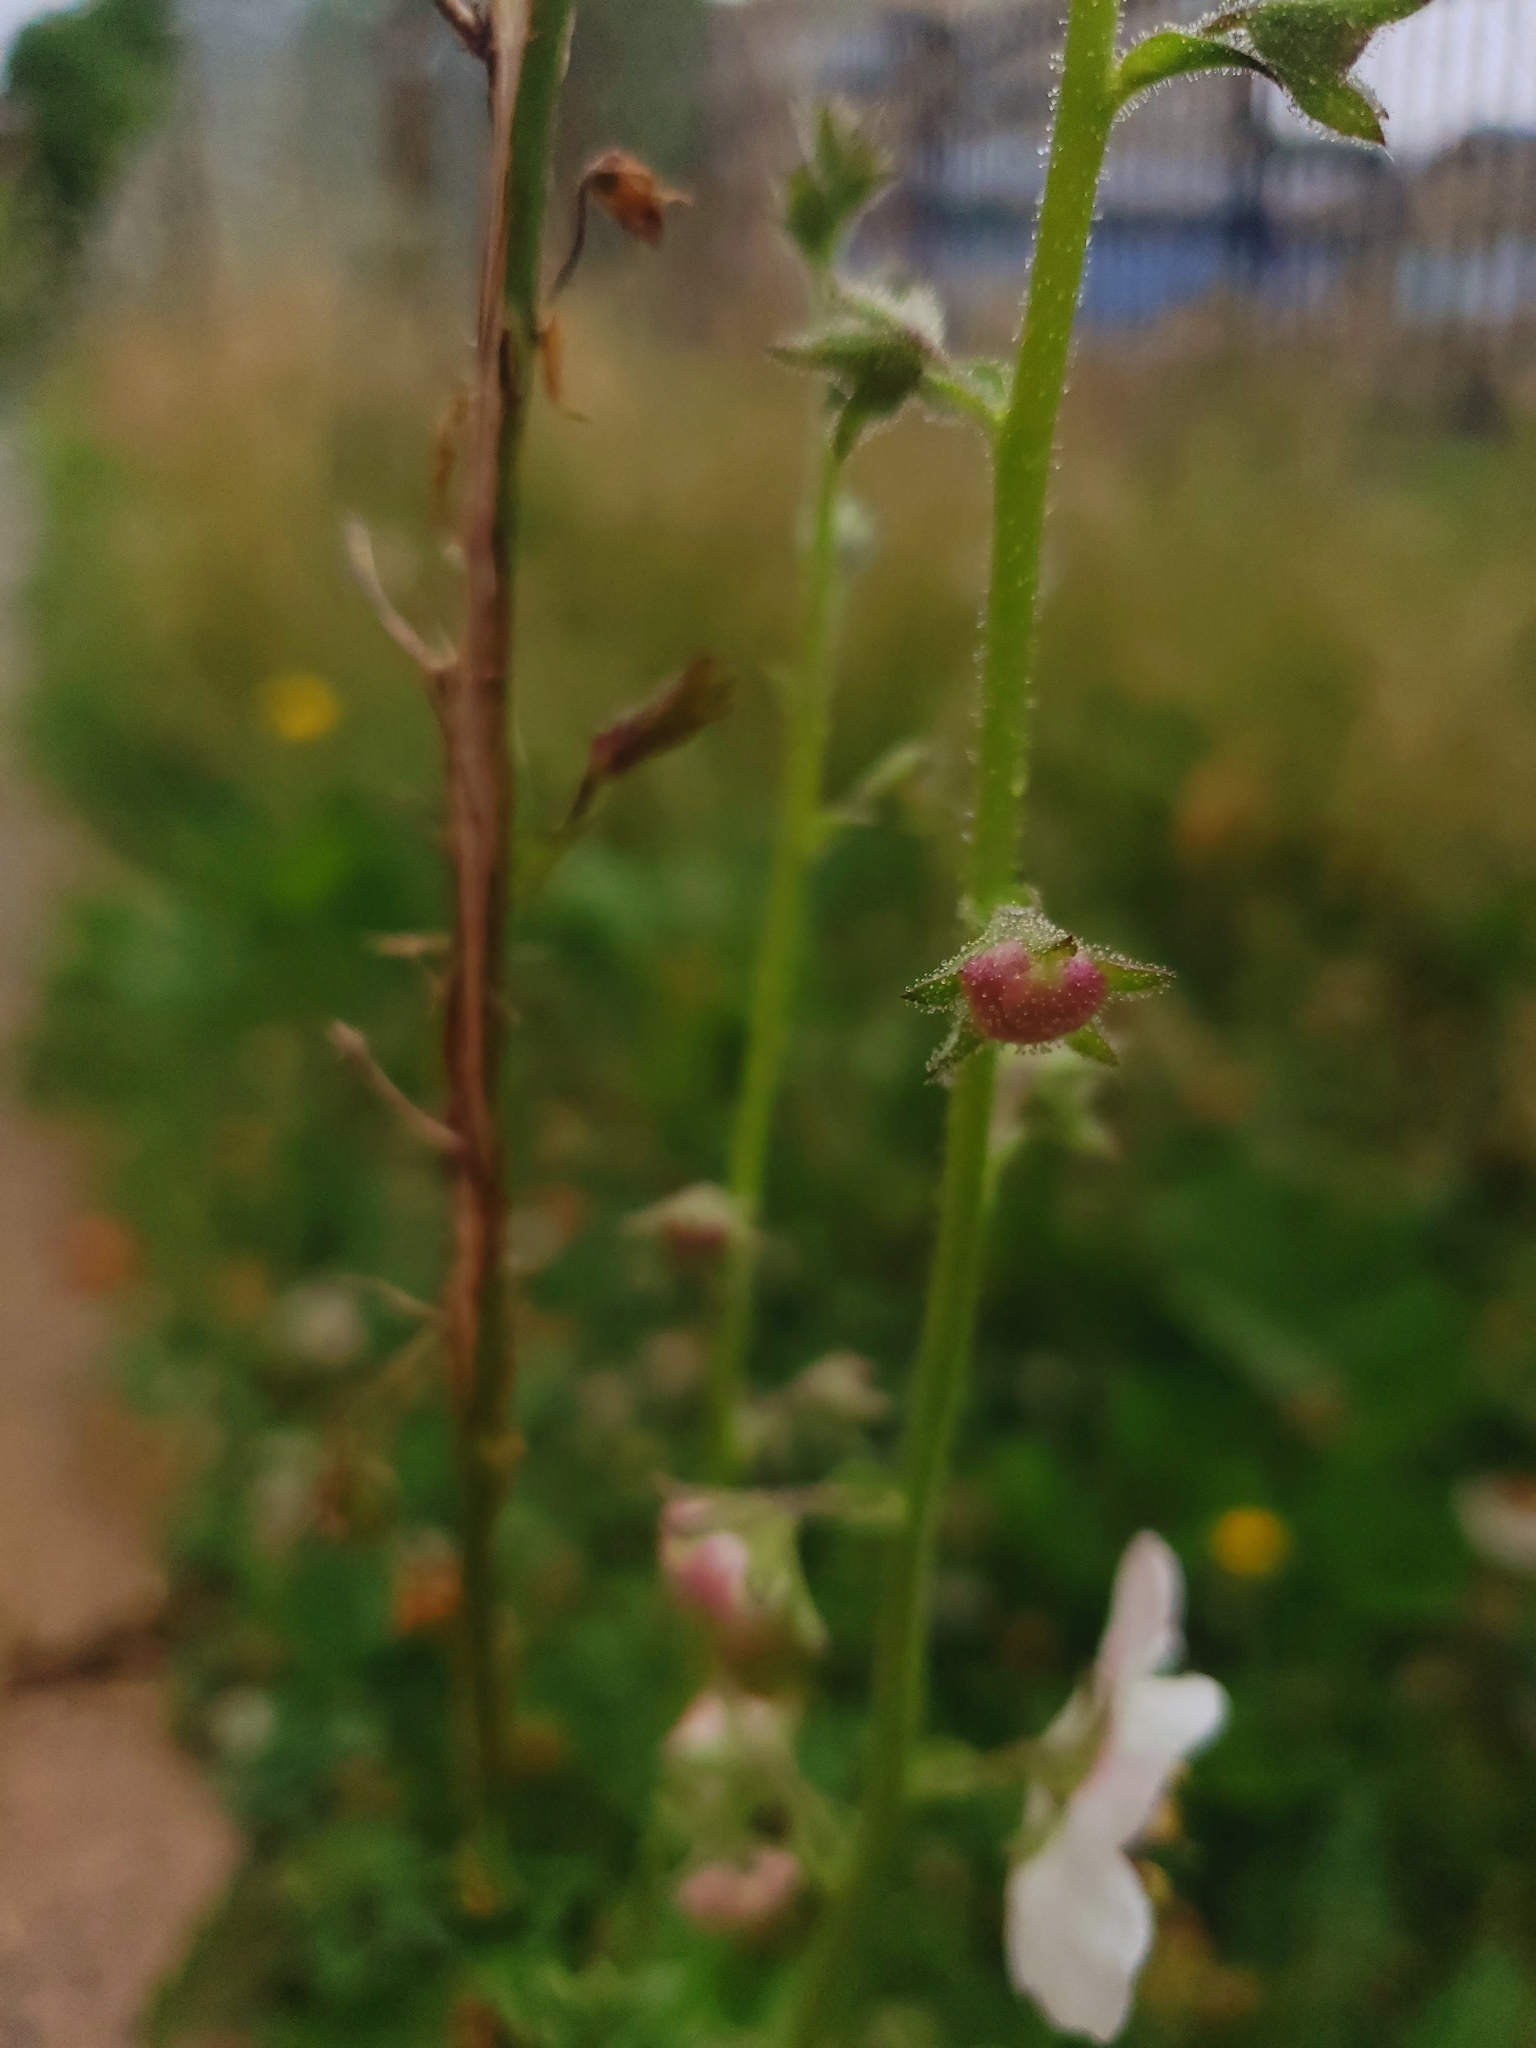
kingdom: Plantae
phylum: Tracheophyta
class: Magnoliopsida
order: Lamiales
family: Scrophulariaceae
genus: Verbascum
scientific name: Verbascum blattaria
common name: Moth mullein
